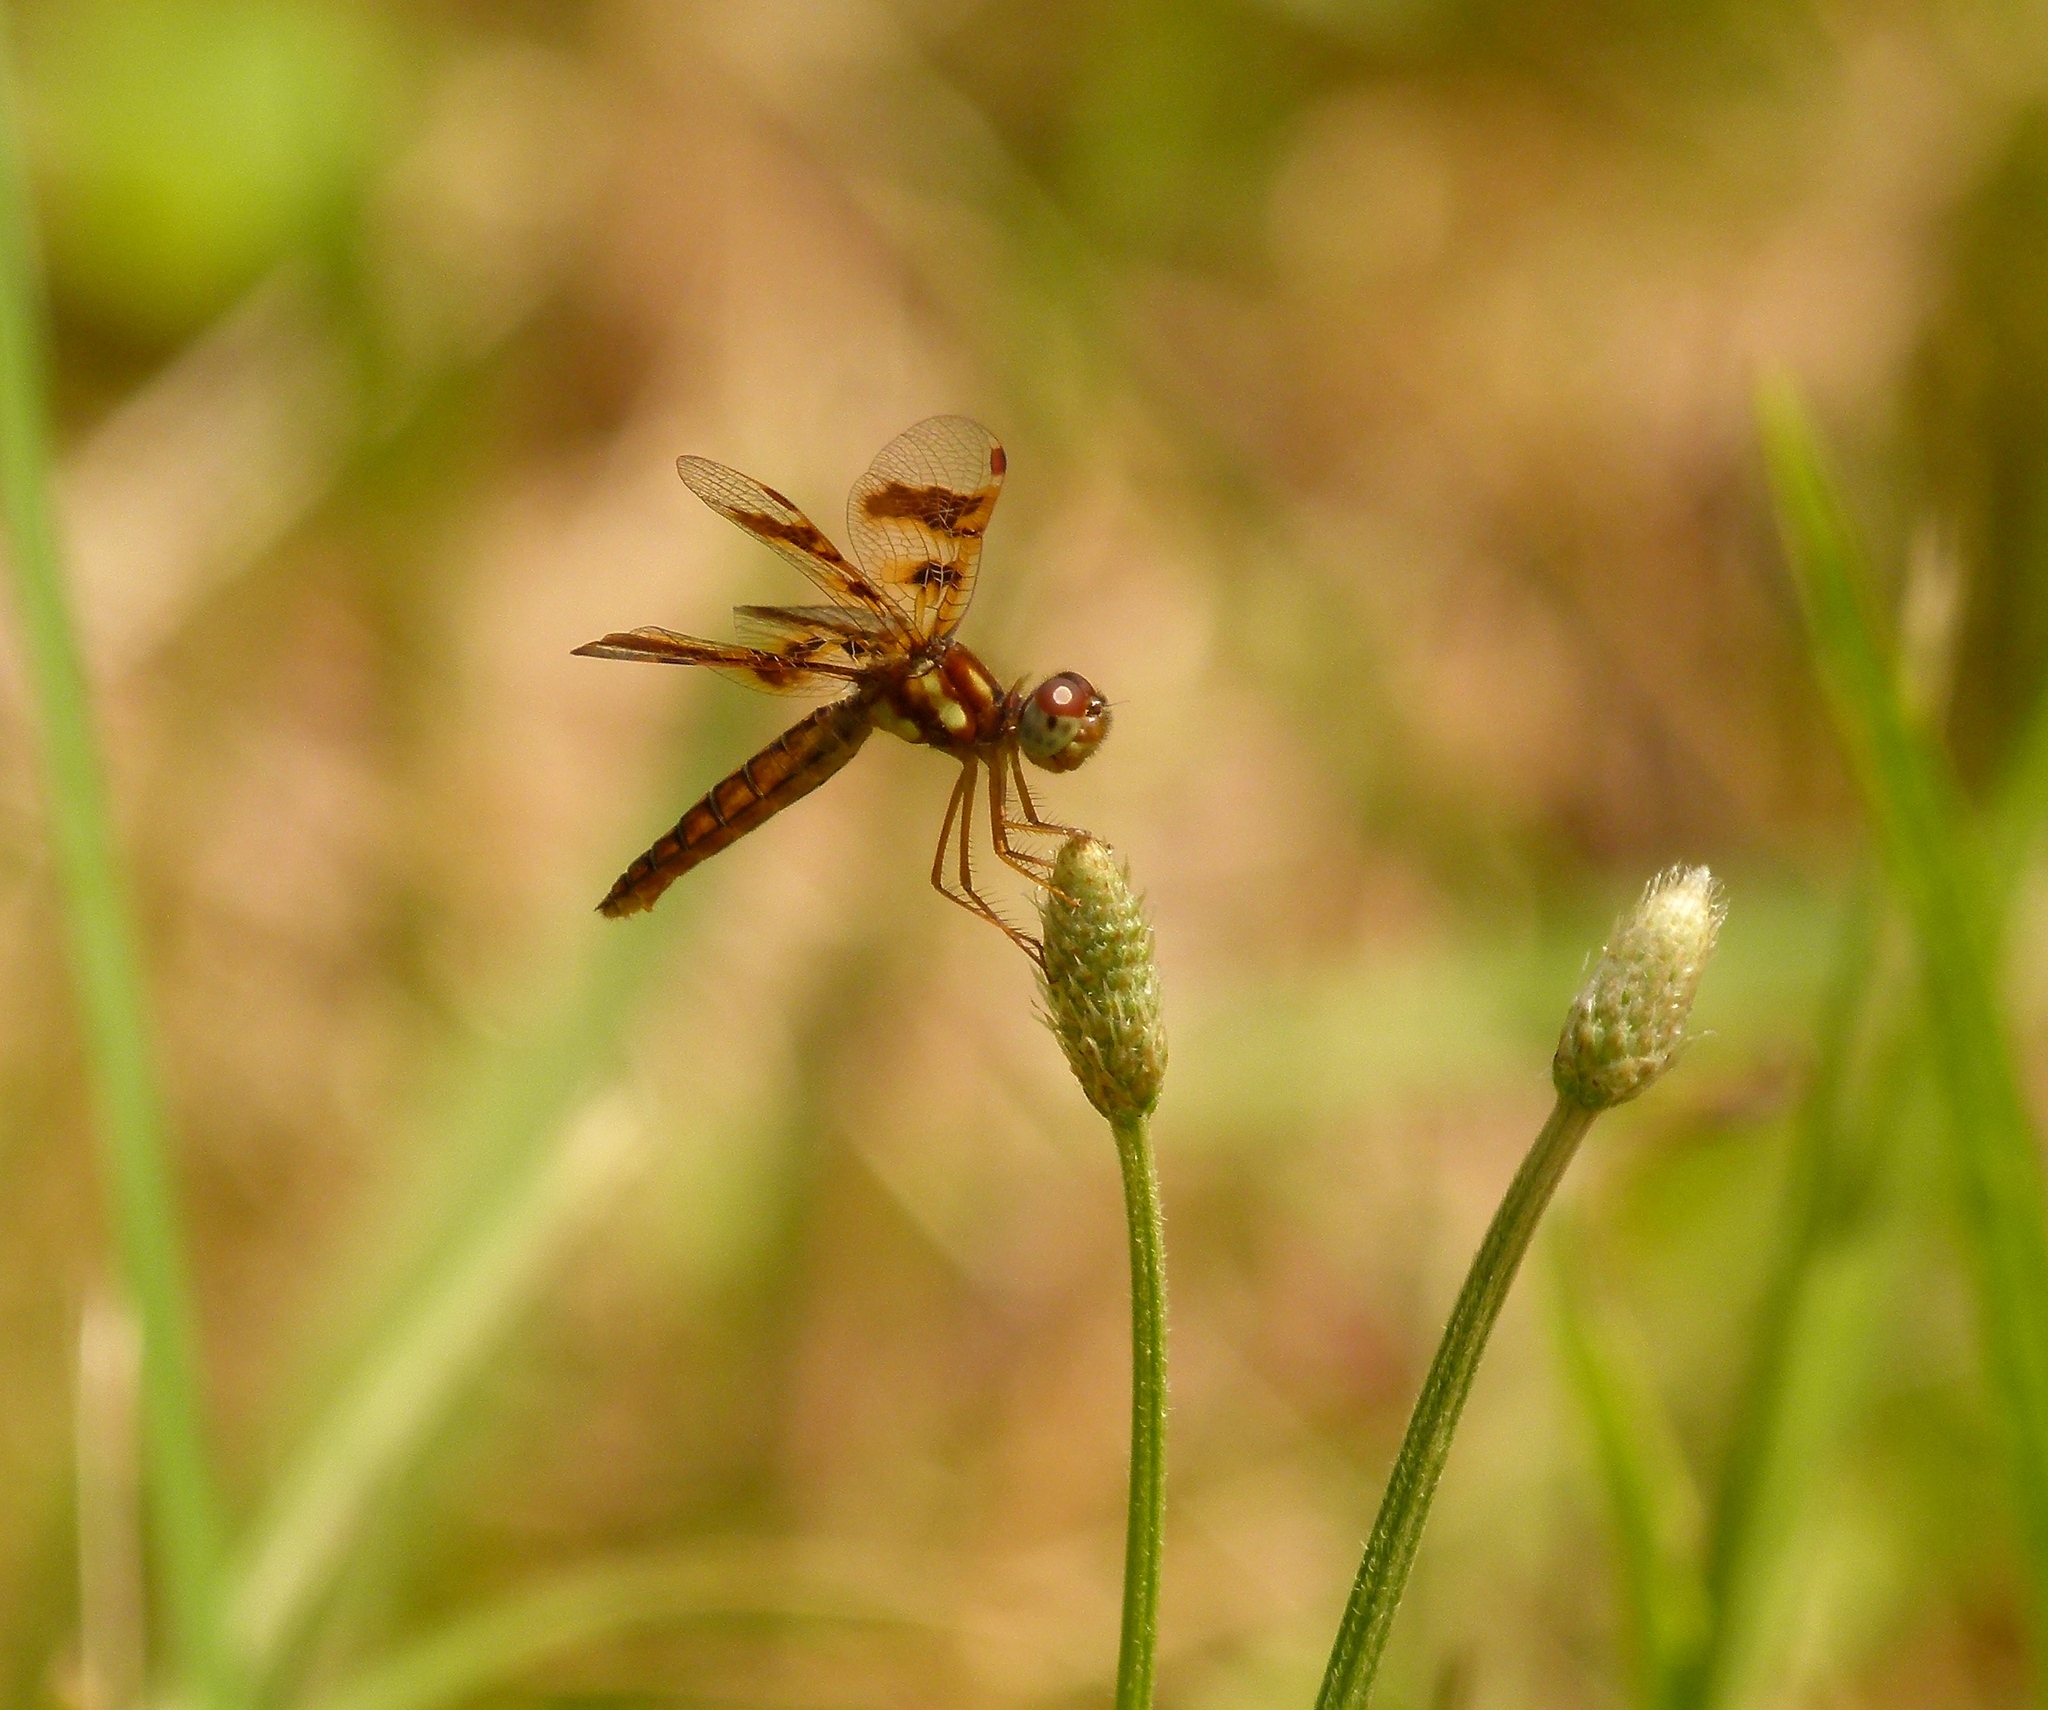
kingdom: Animalia
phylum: Arthropoda
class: Insecta
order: Odonata
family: Libellulidae
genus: Perithemis
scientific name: Perithemis tenera
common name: Eastern amberwing
